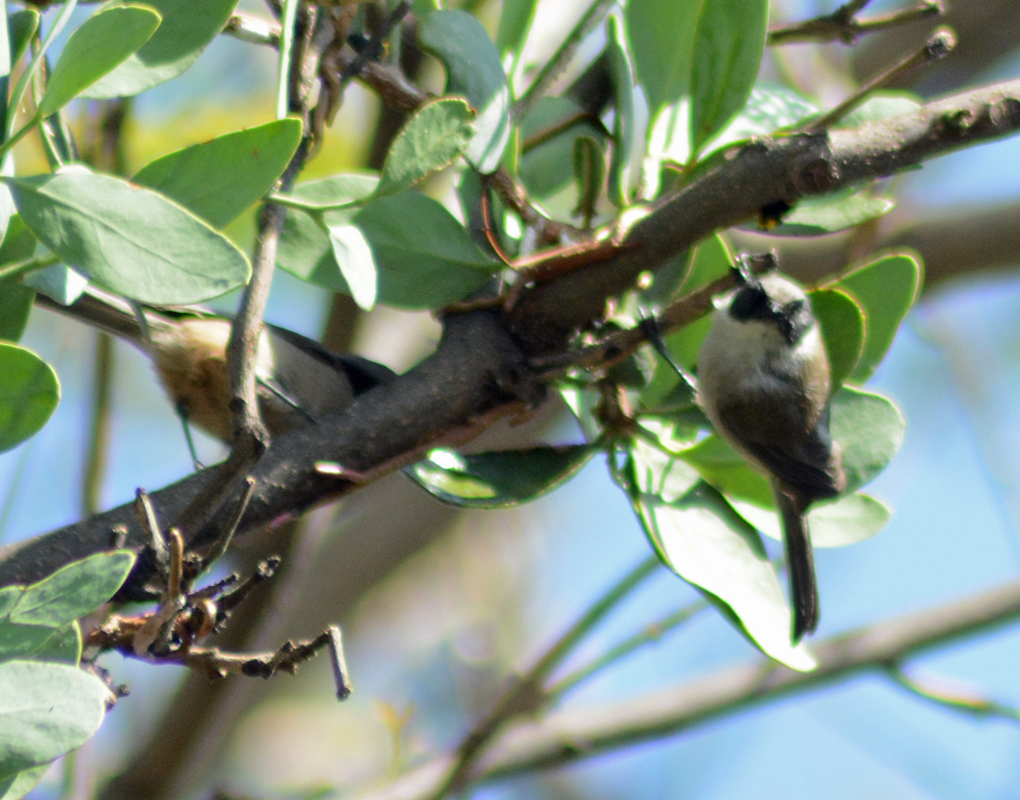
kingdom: Animalia
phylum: Chordata
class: Aves
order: Passeriformes
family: Aegithalidae
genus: Psaltriparus
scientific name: Psaltriparus minimus
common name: American bushtit
